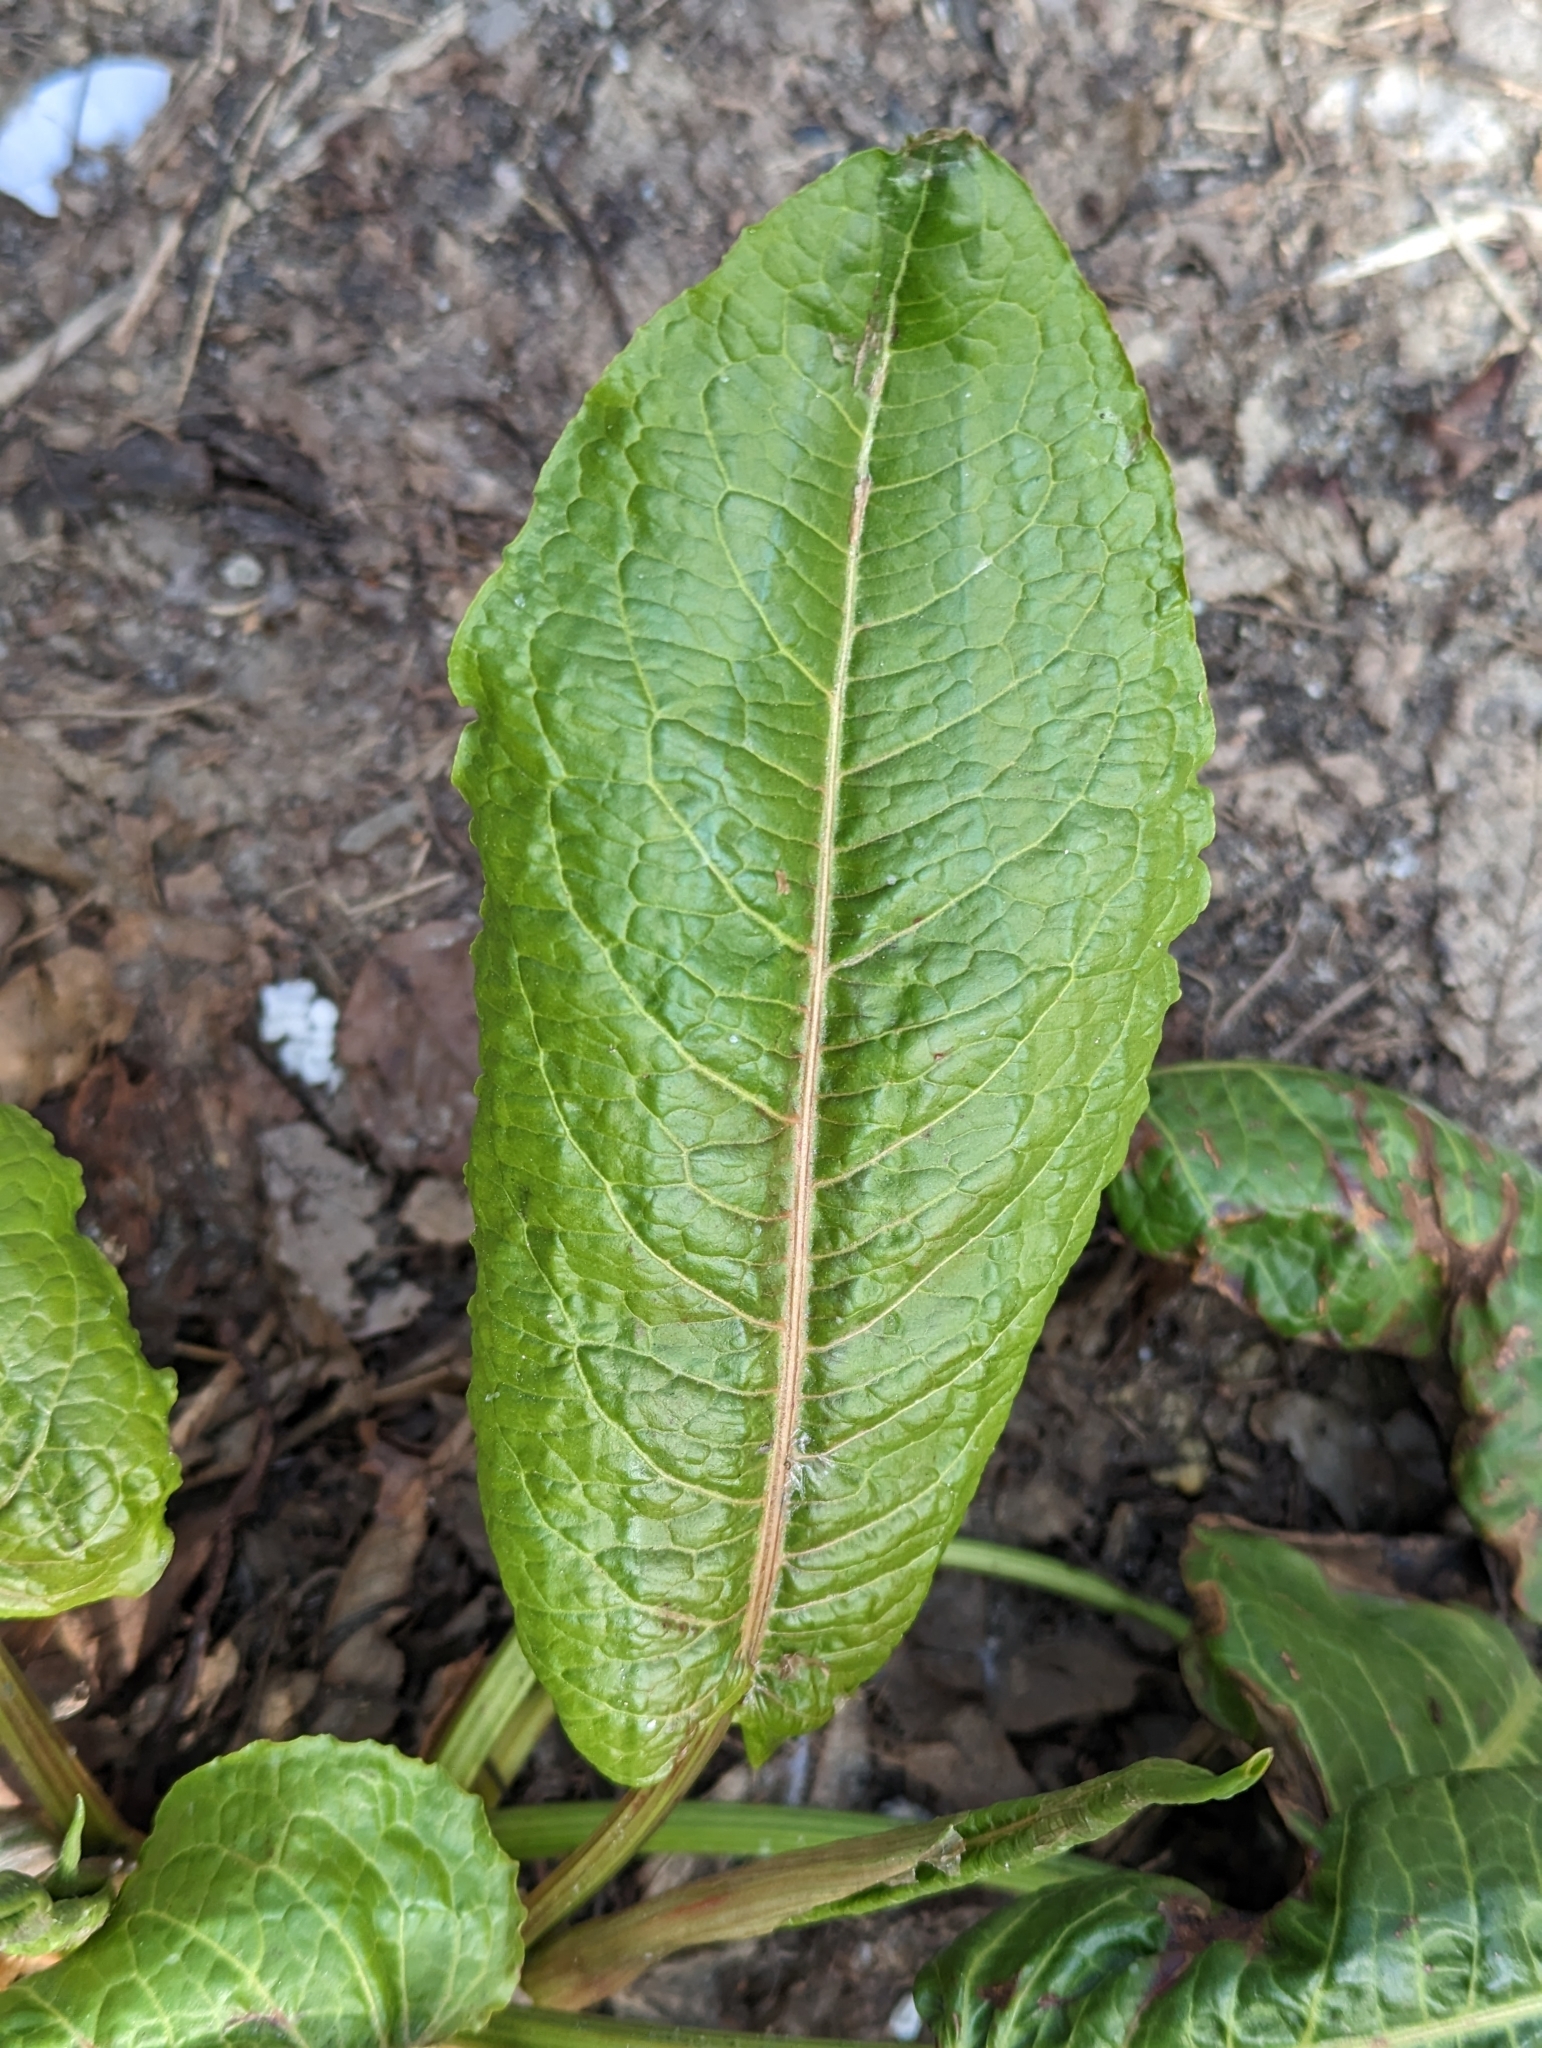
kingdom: Plantae
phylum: Tracheophyta
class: Magnoliopsida
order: Caryophyllales
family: Polygonaceae
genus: Rumex
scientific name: Rumex obtusifolius
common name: Bitter dock
